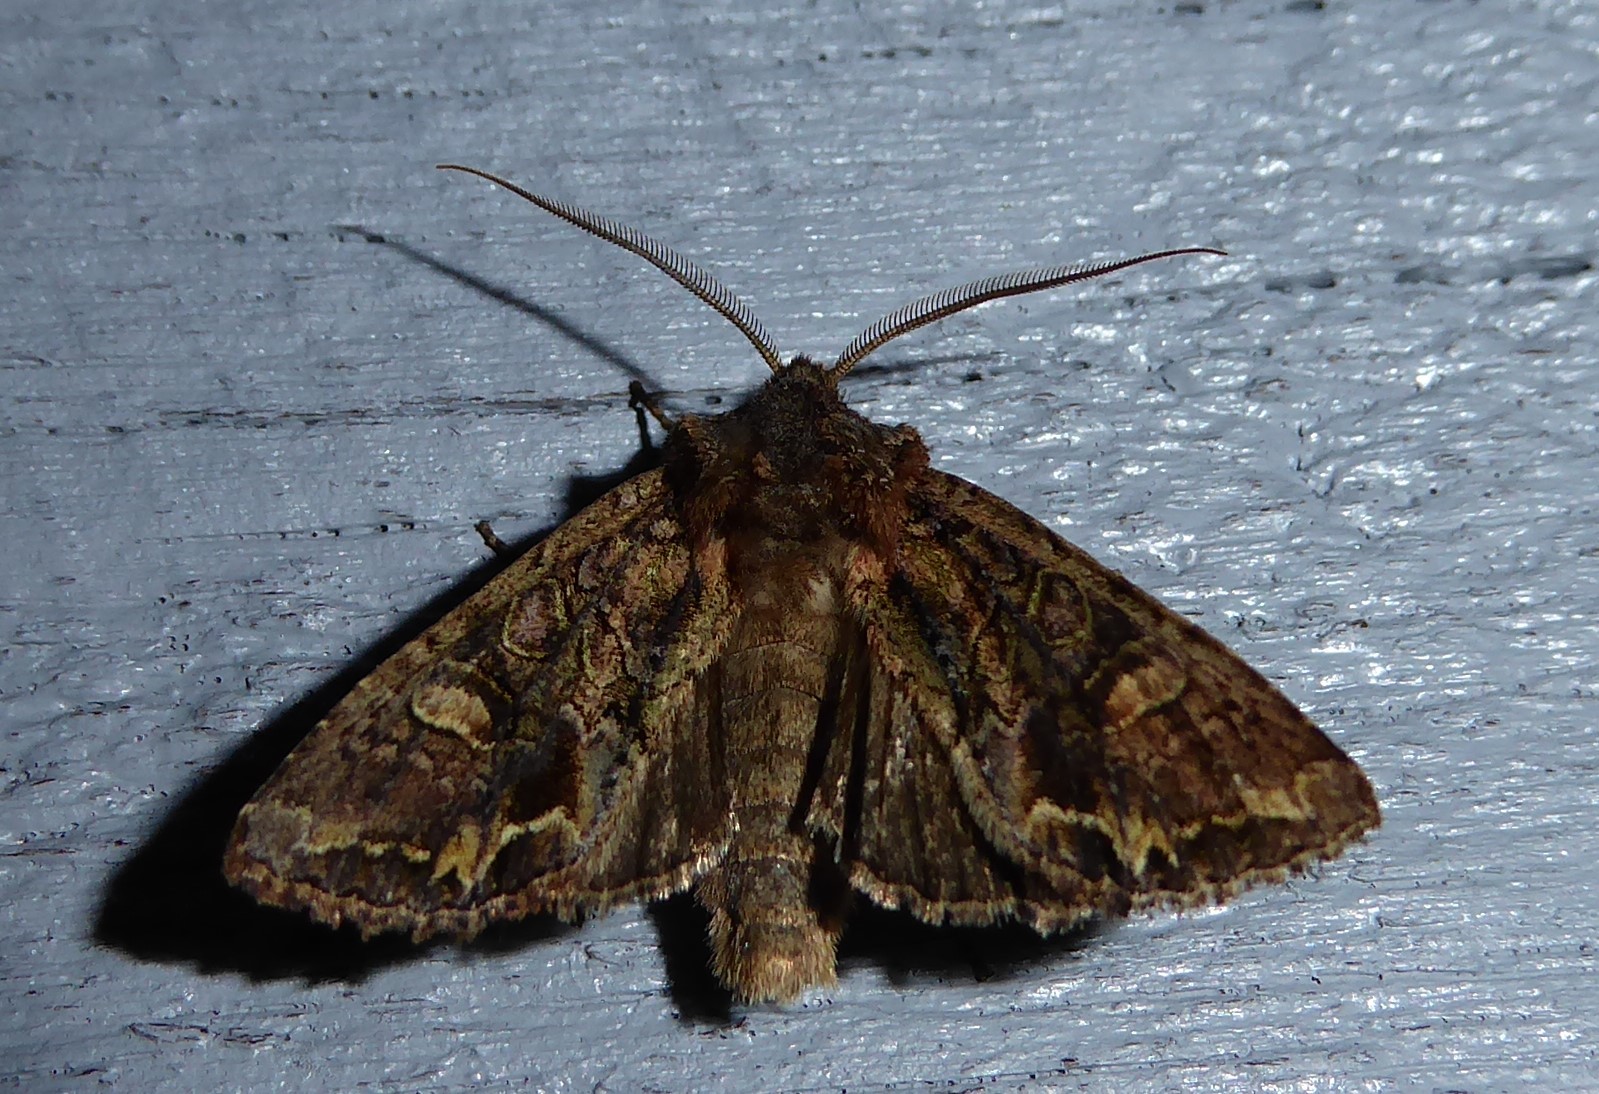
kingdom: Animalia
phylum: Arthropoda
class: Insecta
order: Lepidoptera
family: Noctuidae
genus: Ichneutica
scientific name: Ichneutica insignis
